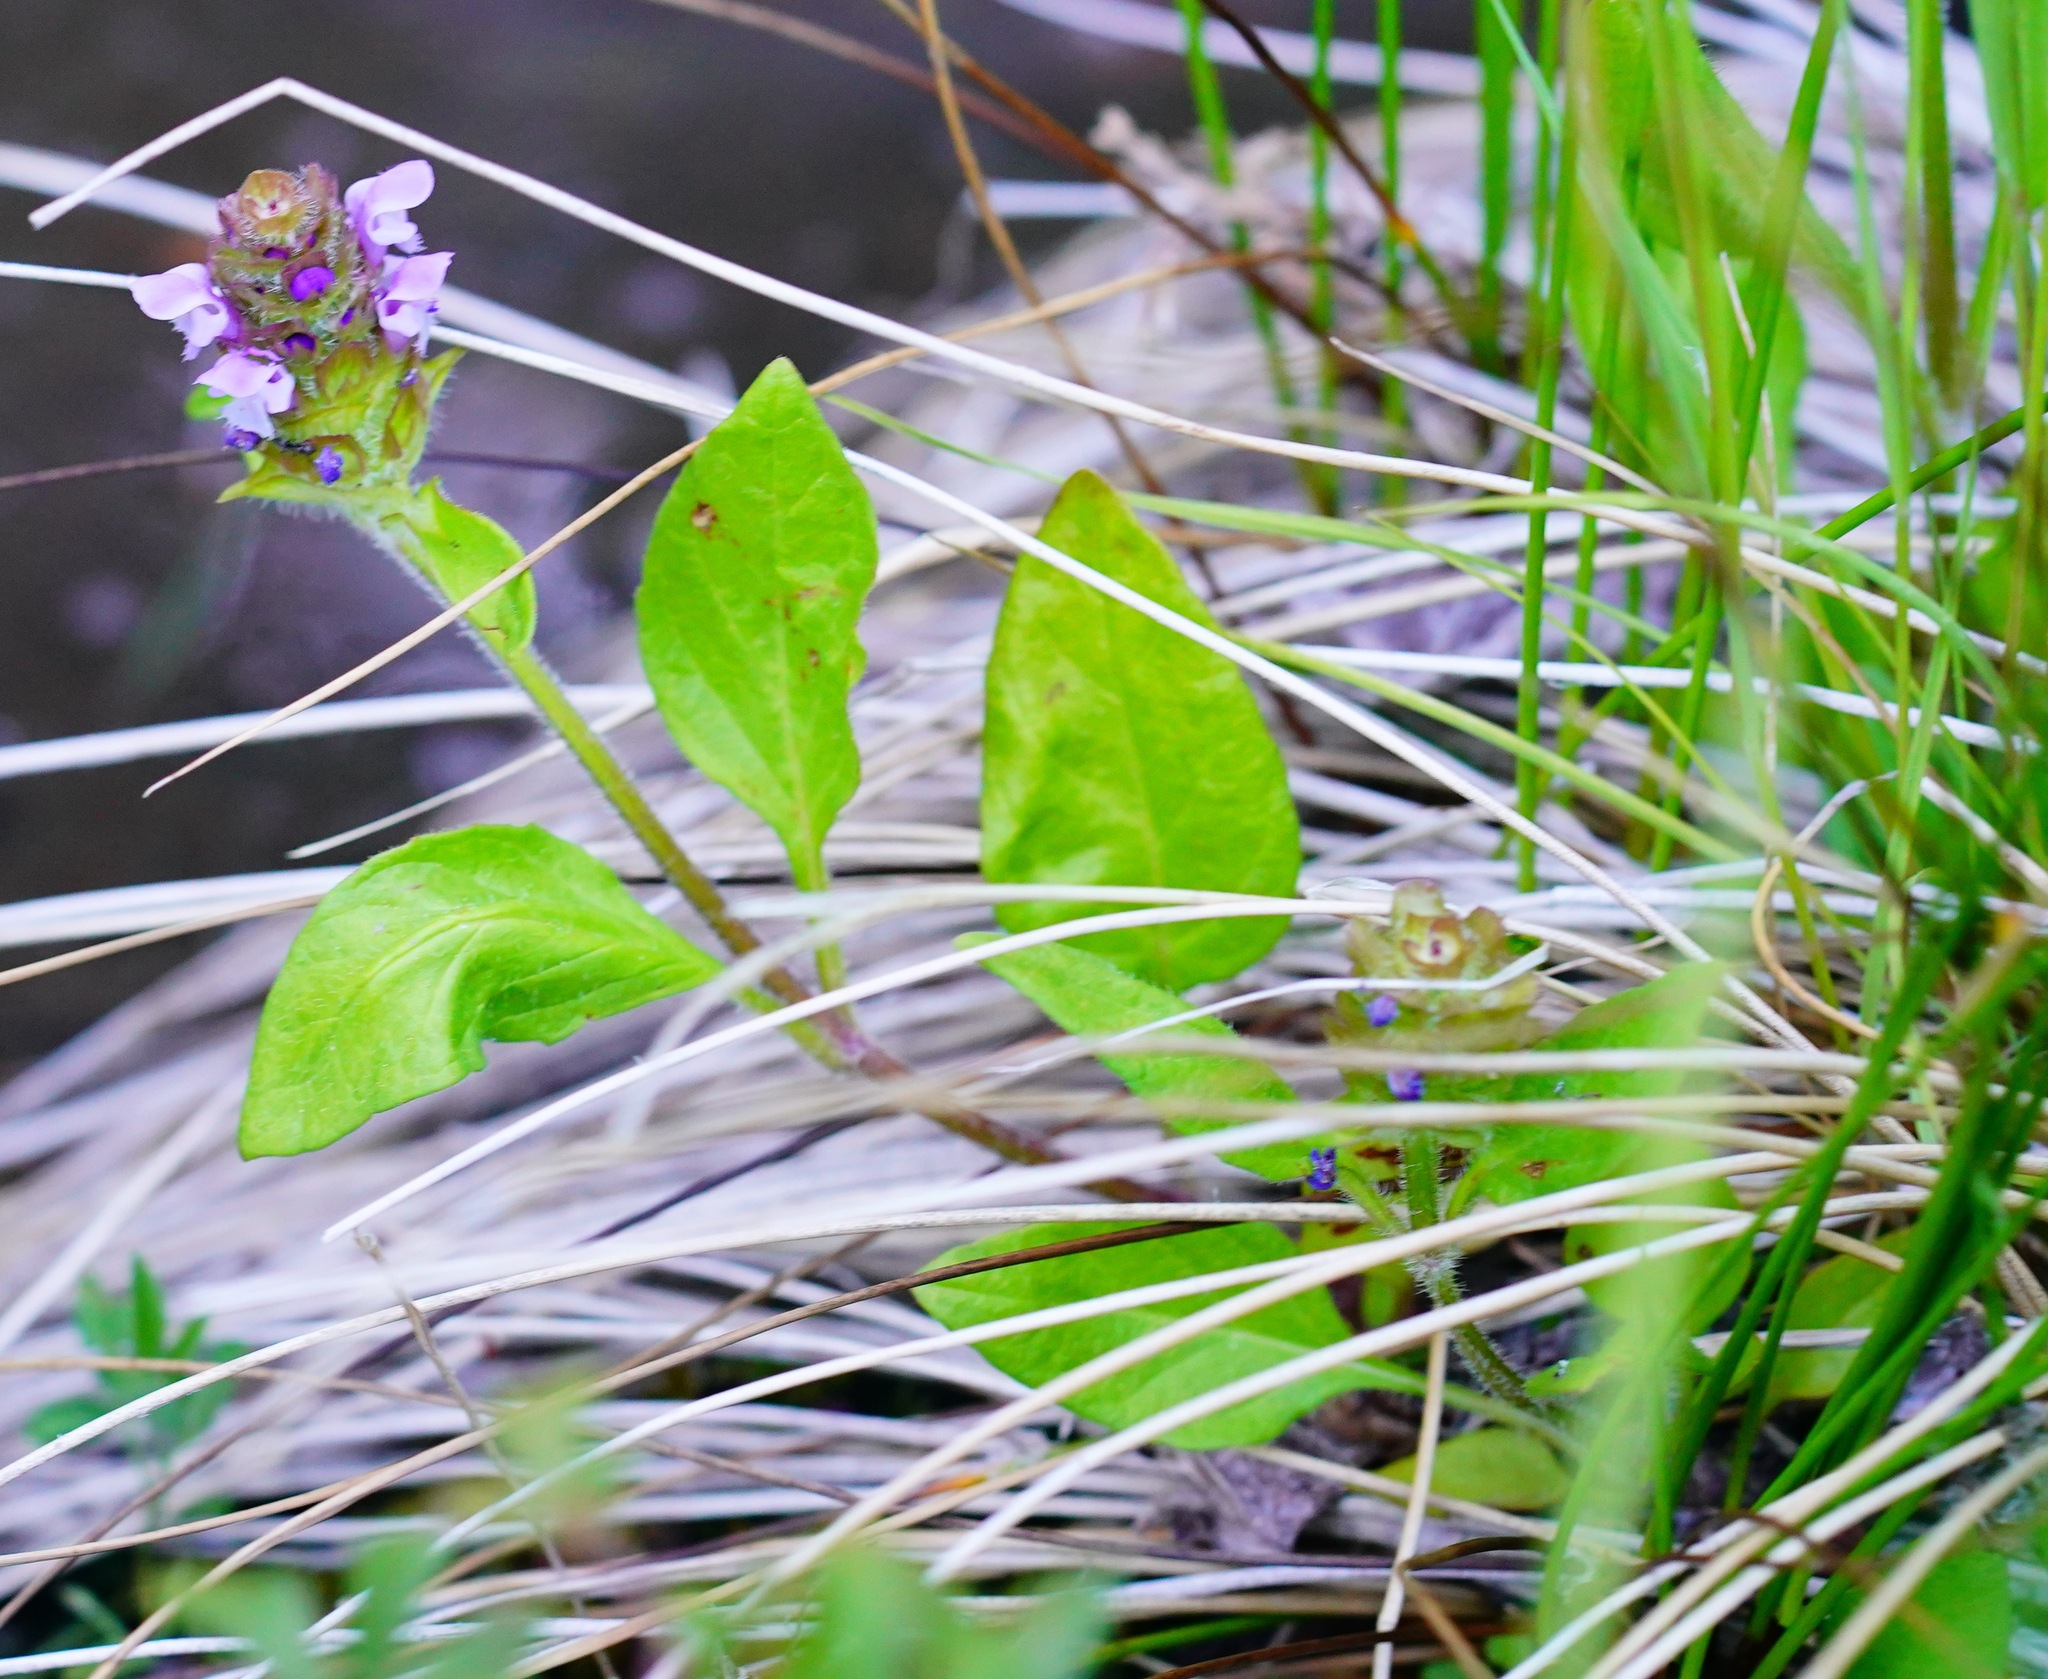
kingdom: Plantae
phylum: Tracheophyta
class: Magnoliopsida
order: Lamiales
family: Lamiaceae
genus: Prunella
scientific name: Prunella vulgaris
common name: Heal-all
